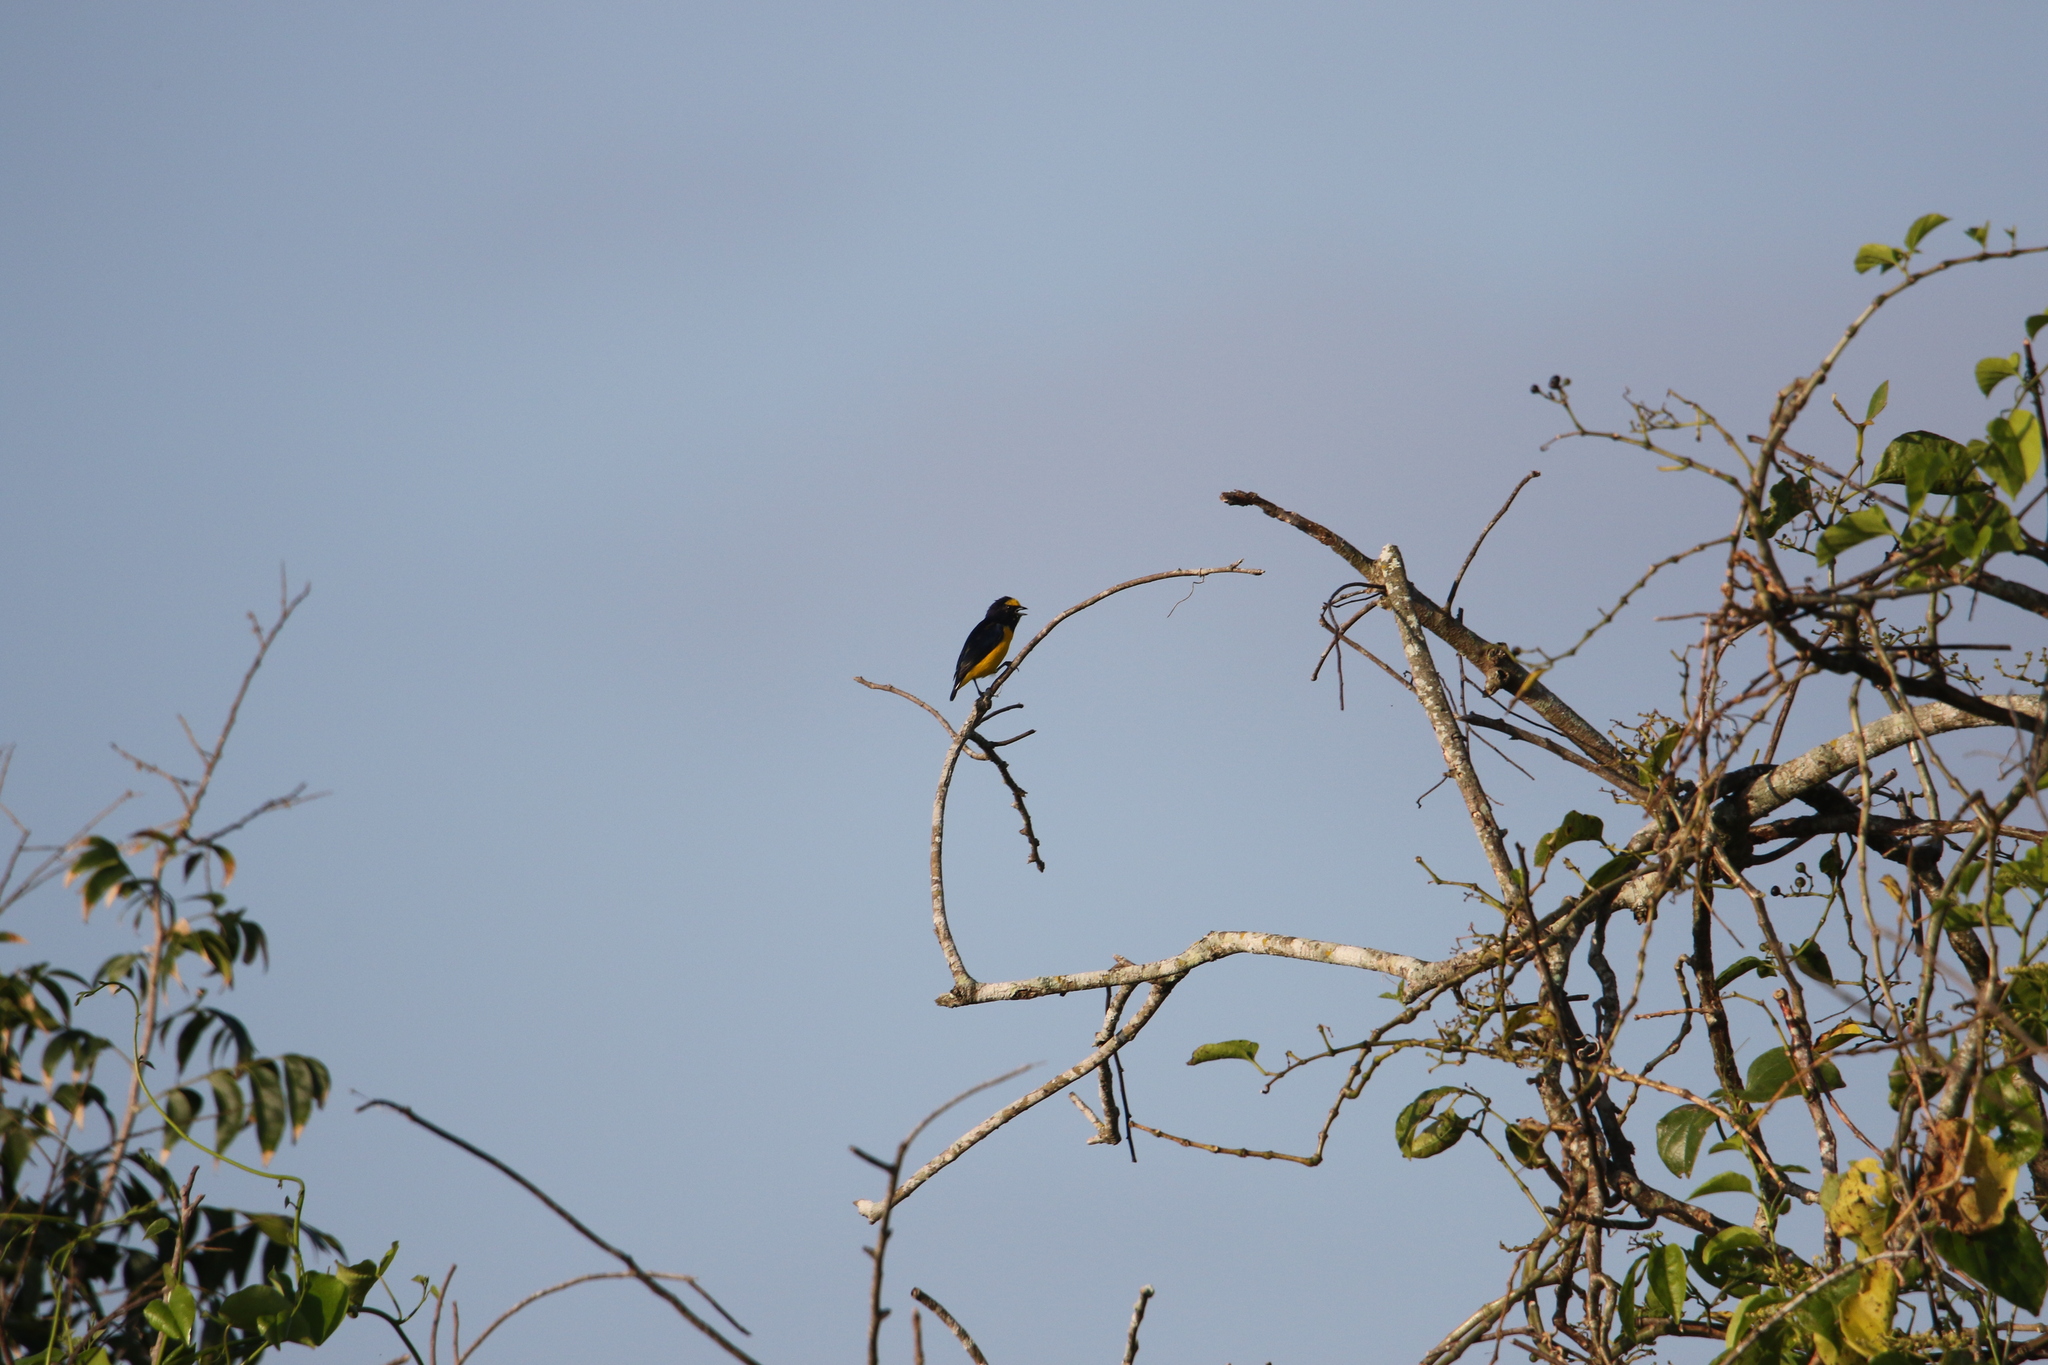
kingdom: Animalia
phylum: Chordata
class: Aves
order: Passeriformes
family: Fringillidae
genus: Euphonia
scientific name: Euphonia affinis
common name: Scrub euphonia
